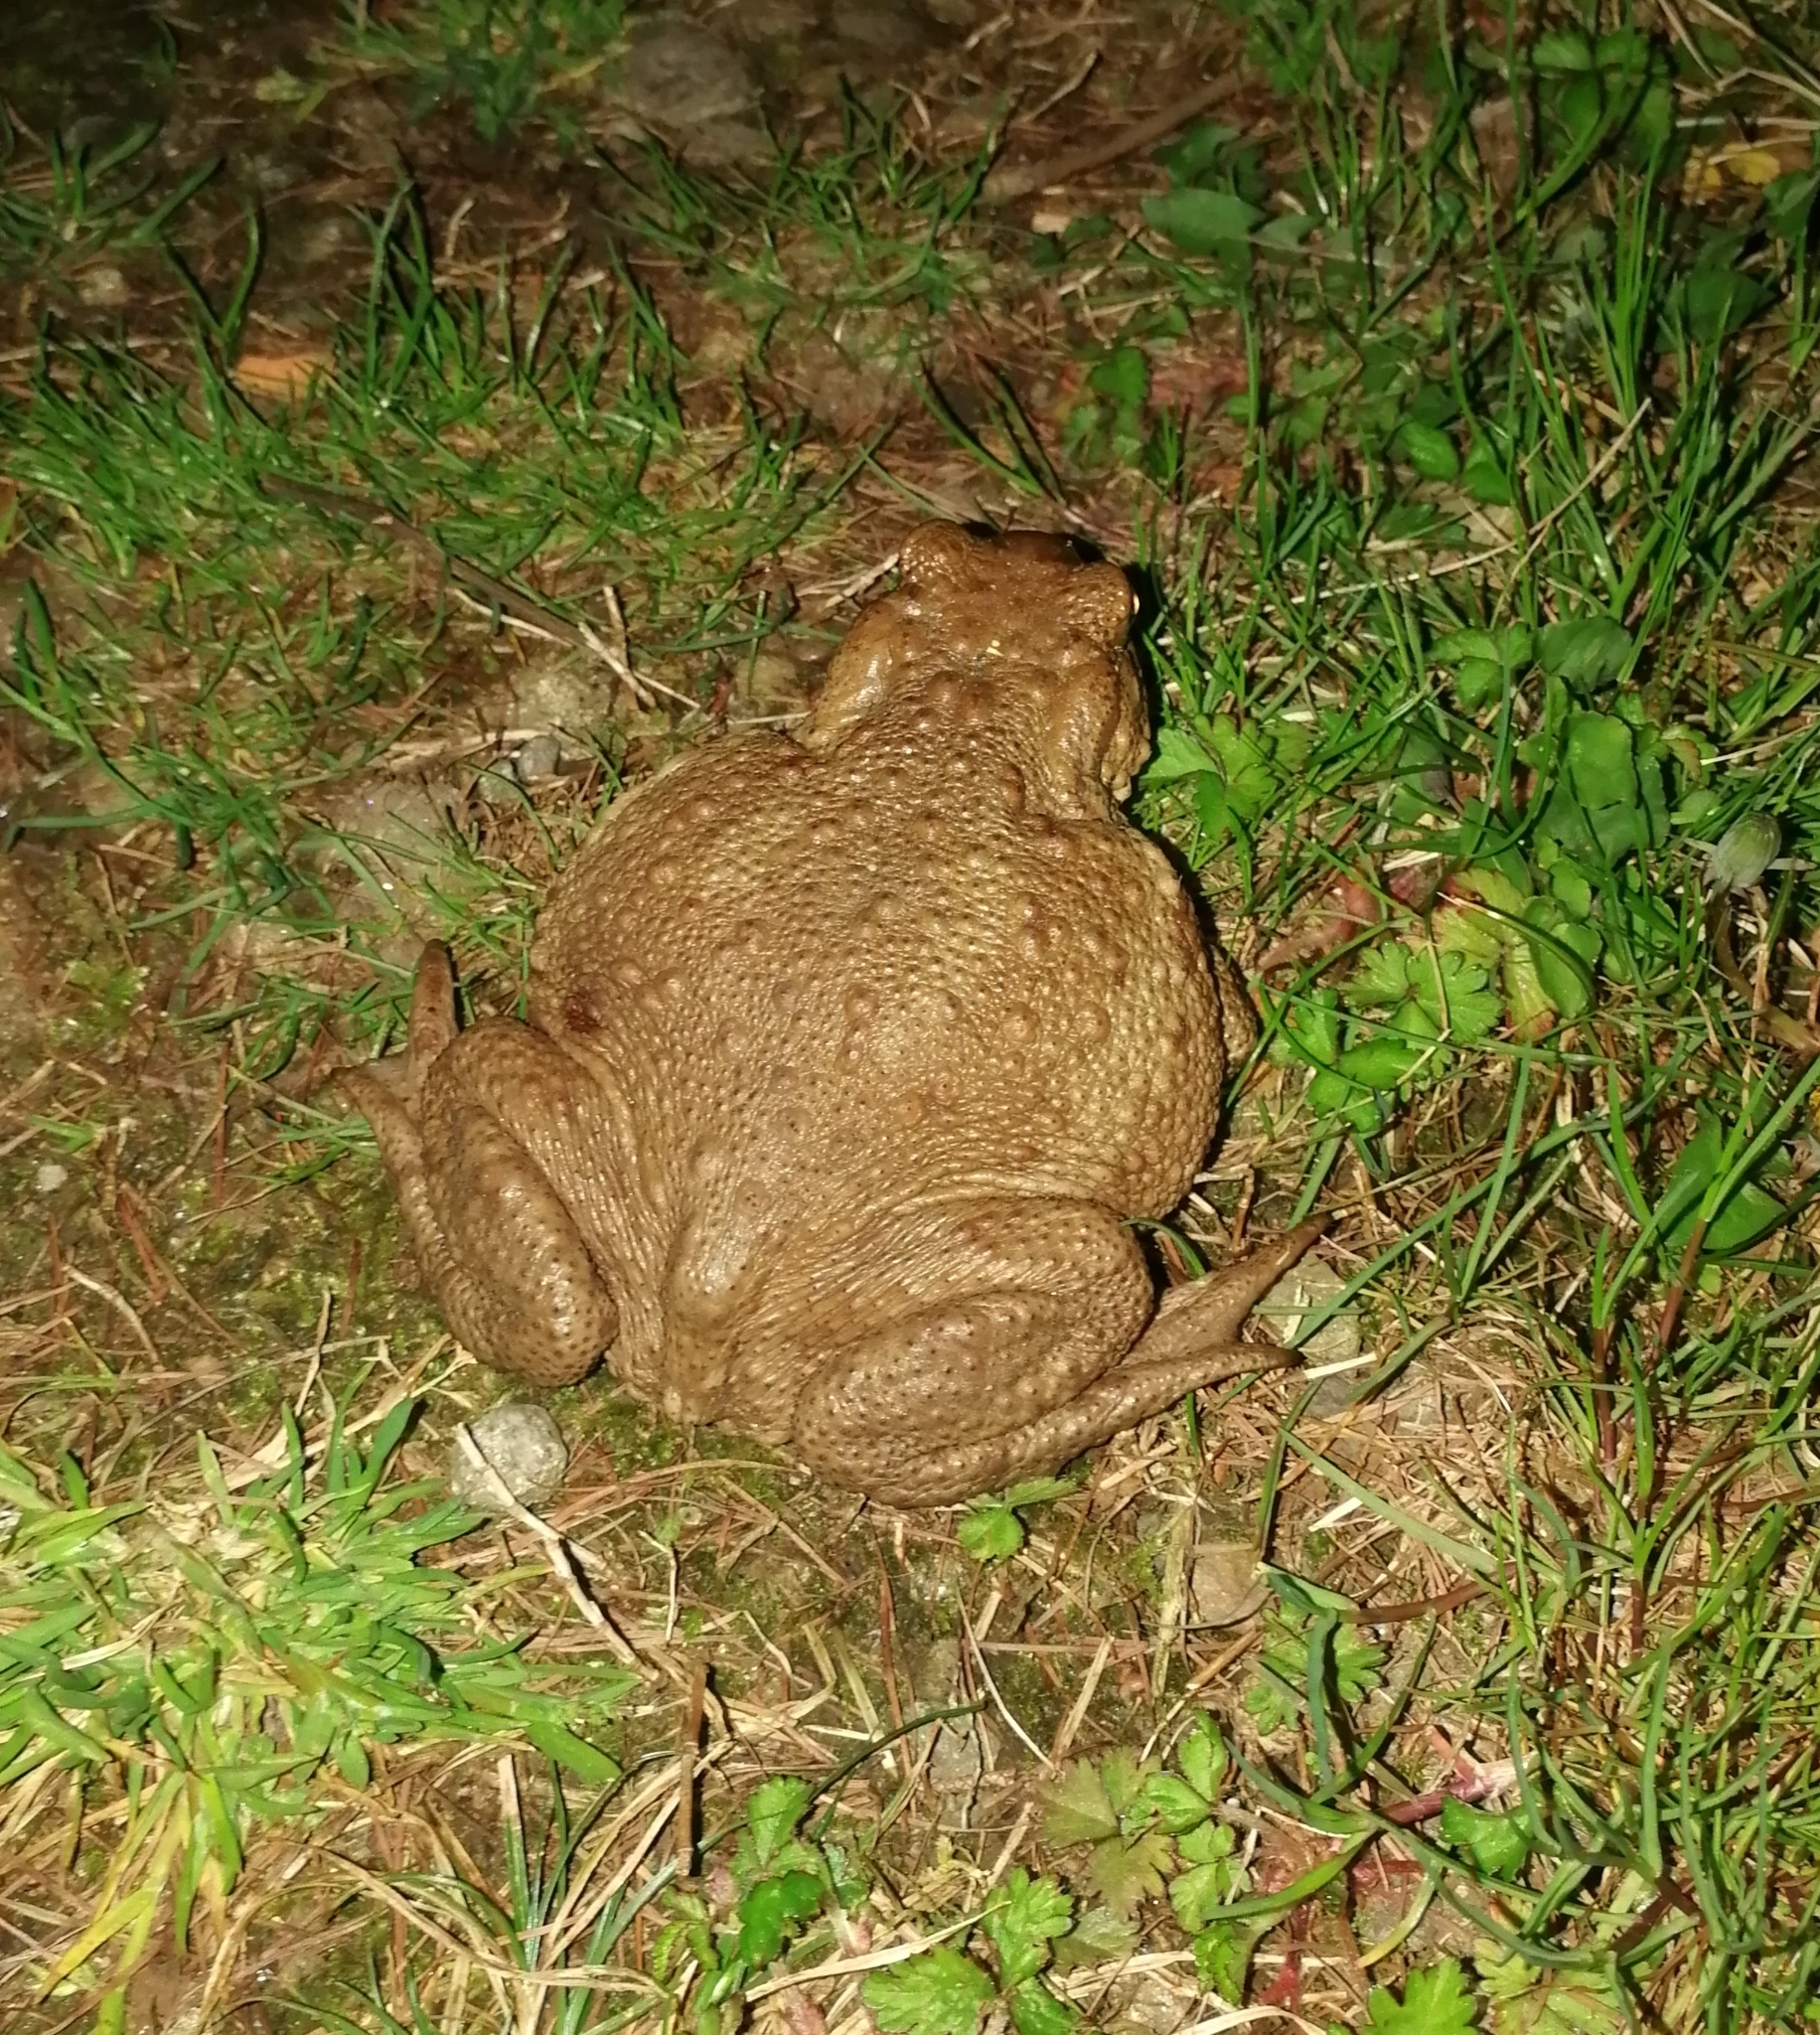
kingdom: Animalia
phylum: Chordata
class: Amphibia
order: Anura
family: Bufonidae
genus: Bufo
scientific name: Bufo bufo
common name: Common toad
